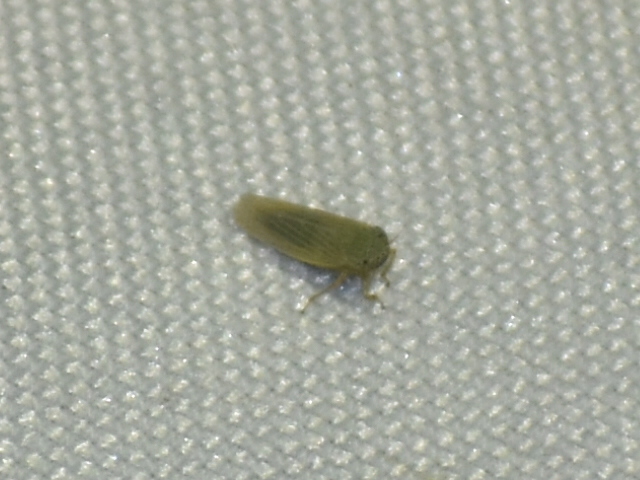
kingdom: Animalia
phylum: Arthropoda
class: Insecta
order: Hemiptera
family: Cicadellidae
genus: Graminella
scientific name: Graminella nigrifrons
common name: Blackfaced leafhopper
